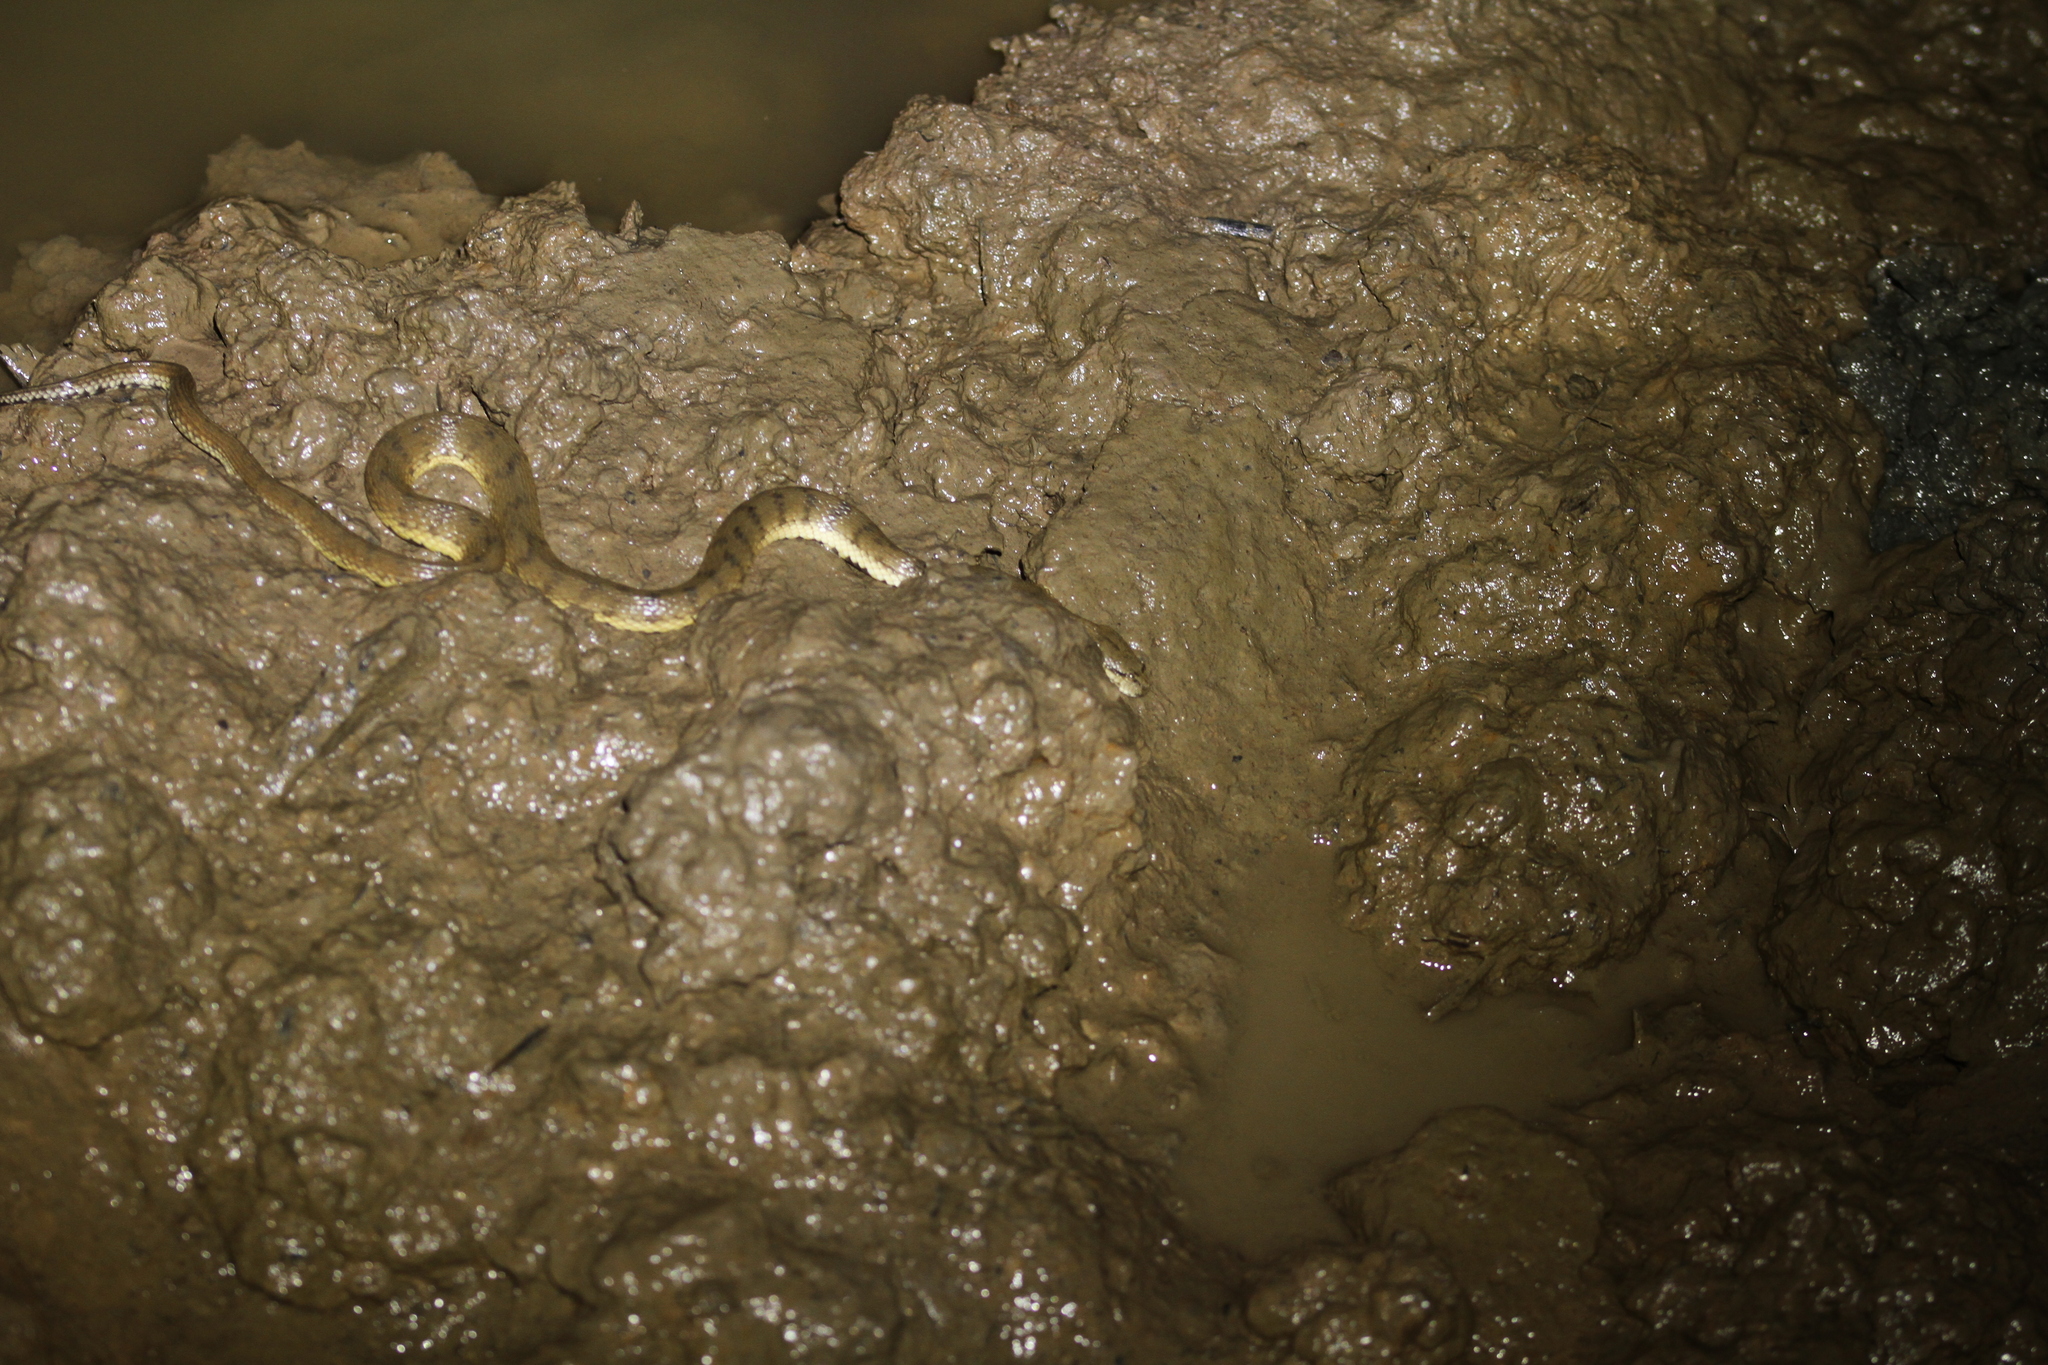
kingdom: Animalia
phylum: Chordata
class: Squamata
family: Homalopsidae
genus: Cerberus
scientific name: Cerberus schneiderii
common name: Southeast asian bockadam
